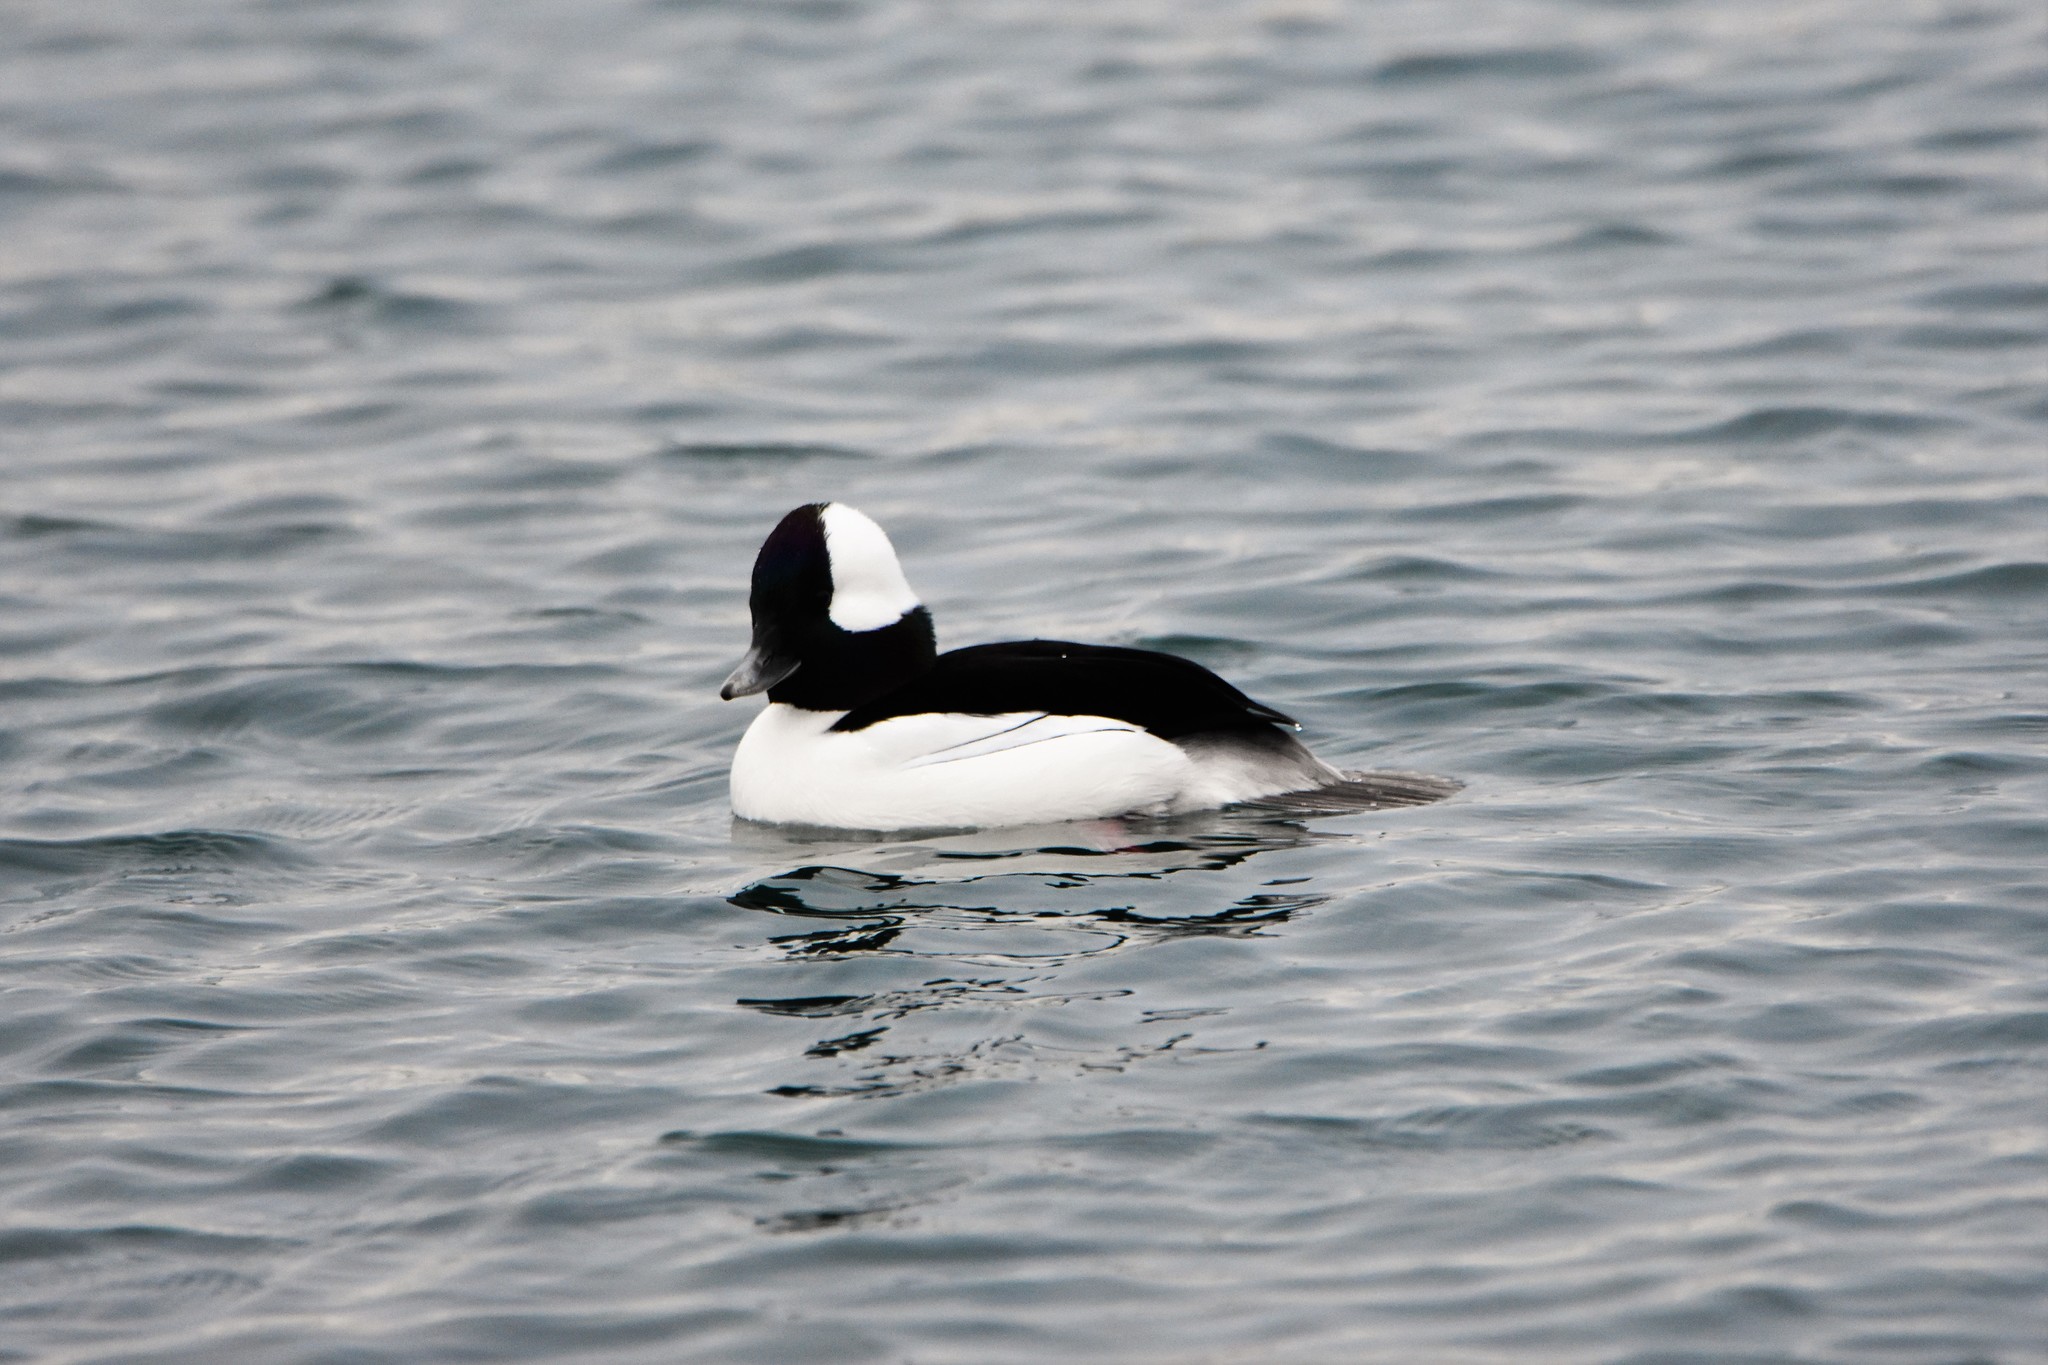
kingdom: Animalia
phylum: Chordata
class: Aves
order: Anseriformes
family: Anatidae
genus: Bucephala
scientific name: Bucephala albeola
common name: Bufflehead
